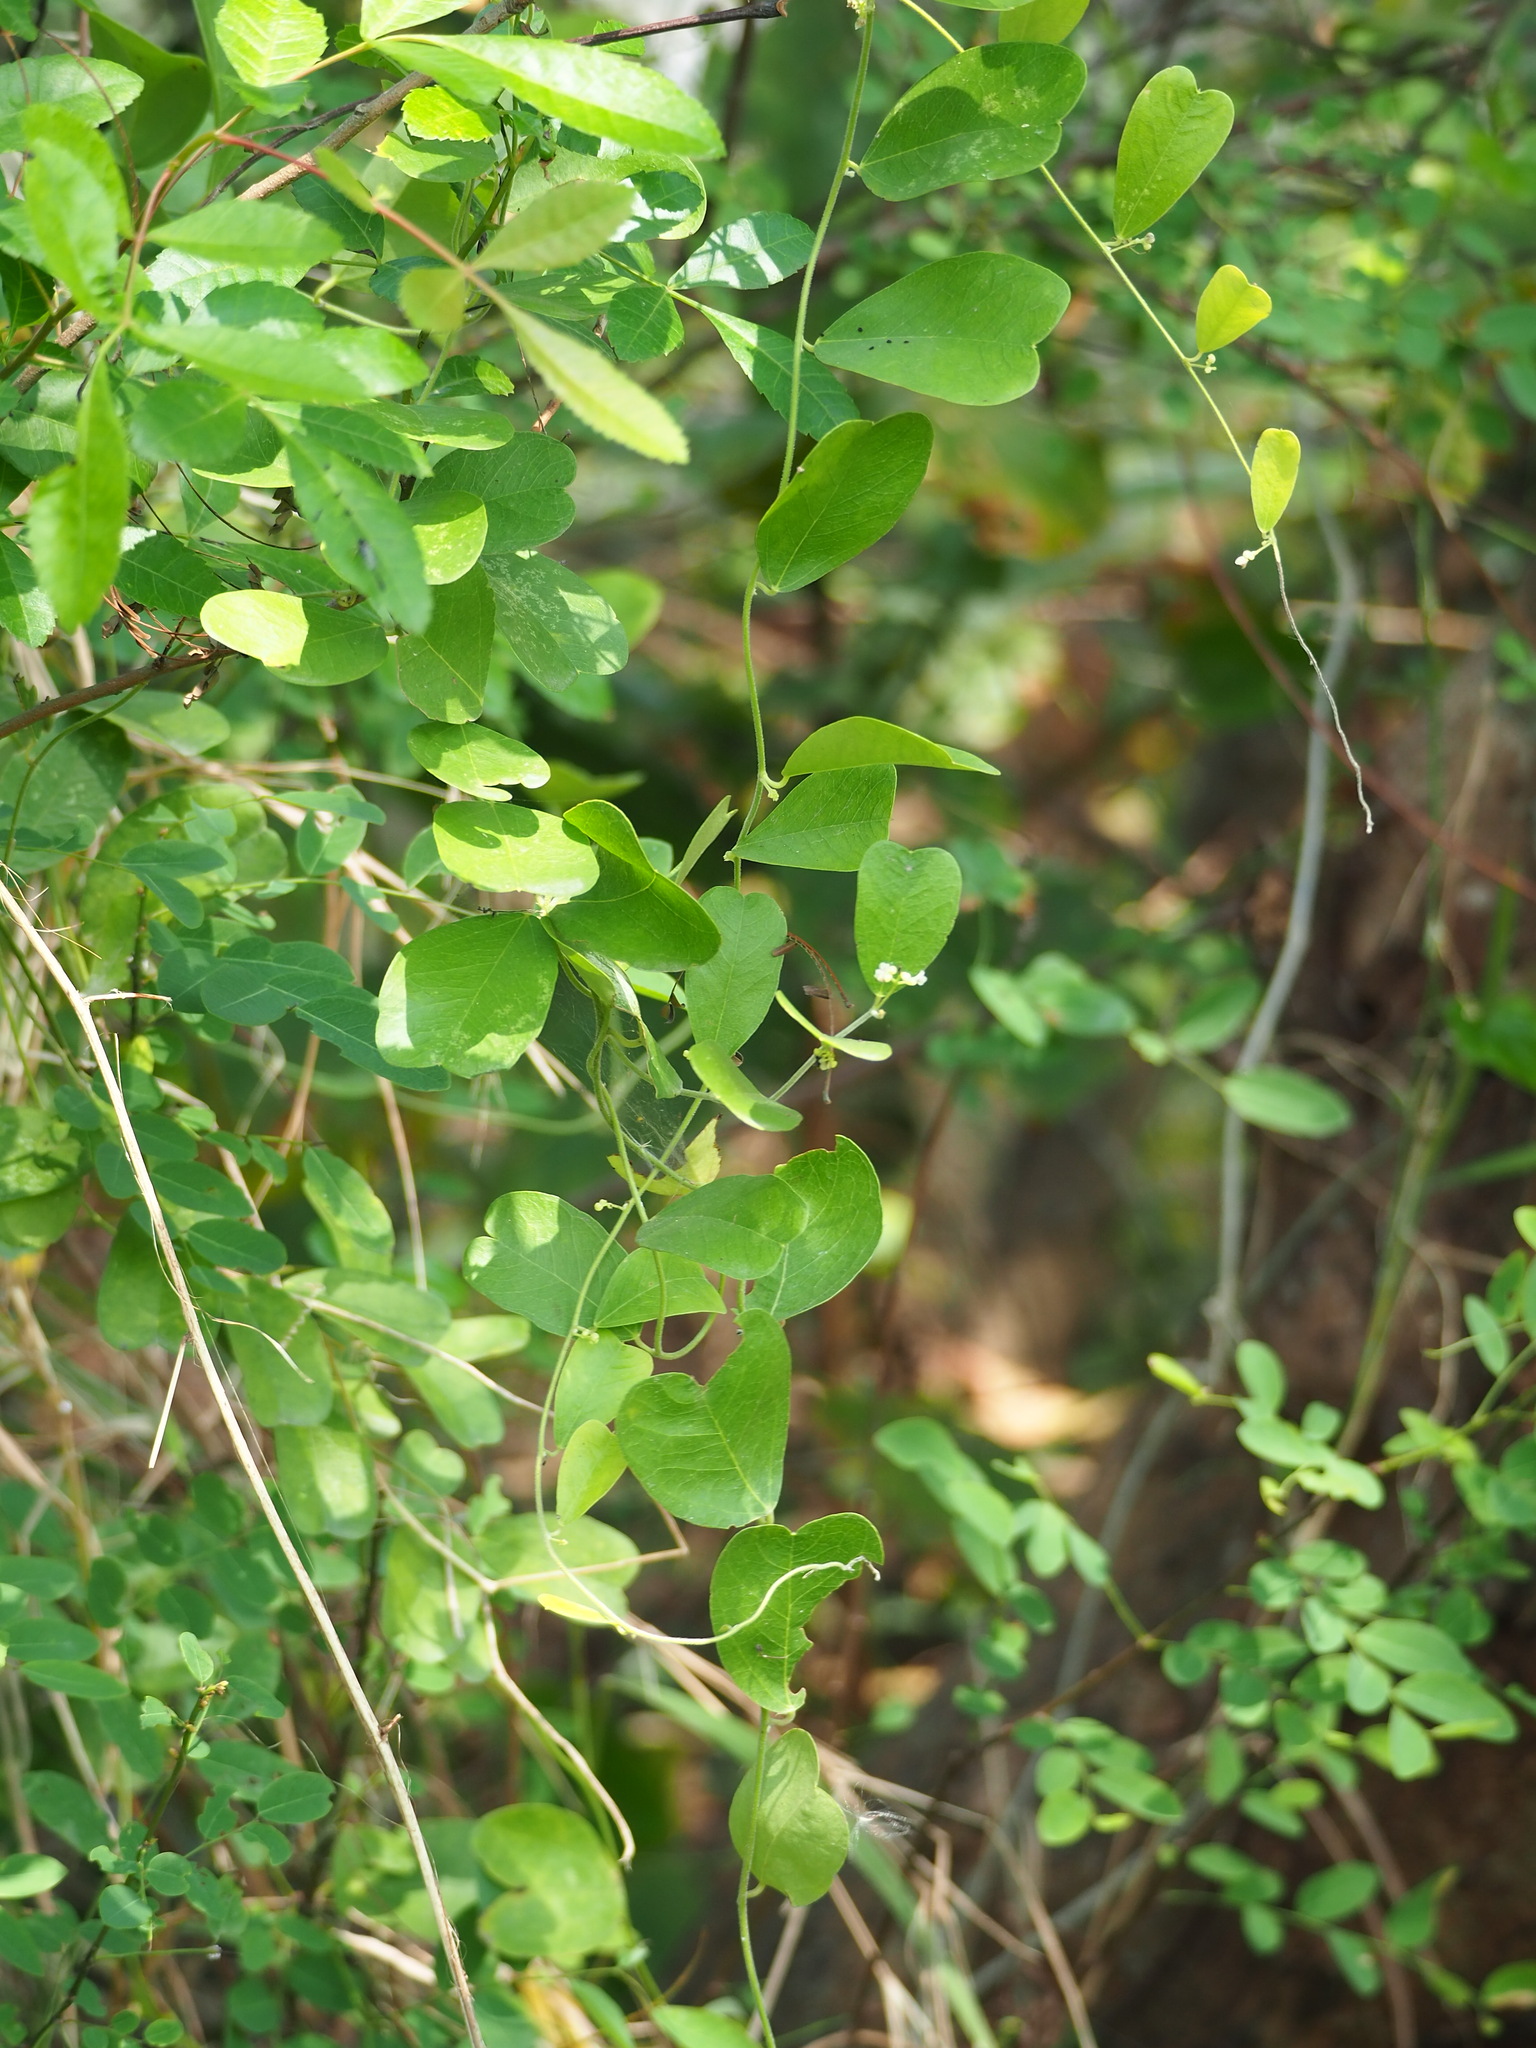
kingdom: Plantae
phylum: Tracheophyta
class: Magnoliopsida
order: Ranunculales
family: Menispermaceae
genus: Cocculus
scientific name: Cocculus orbiculatus
